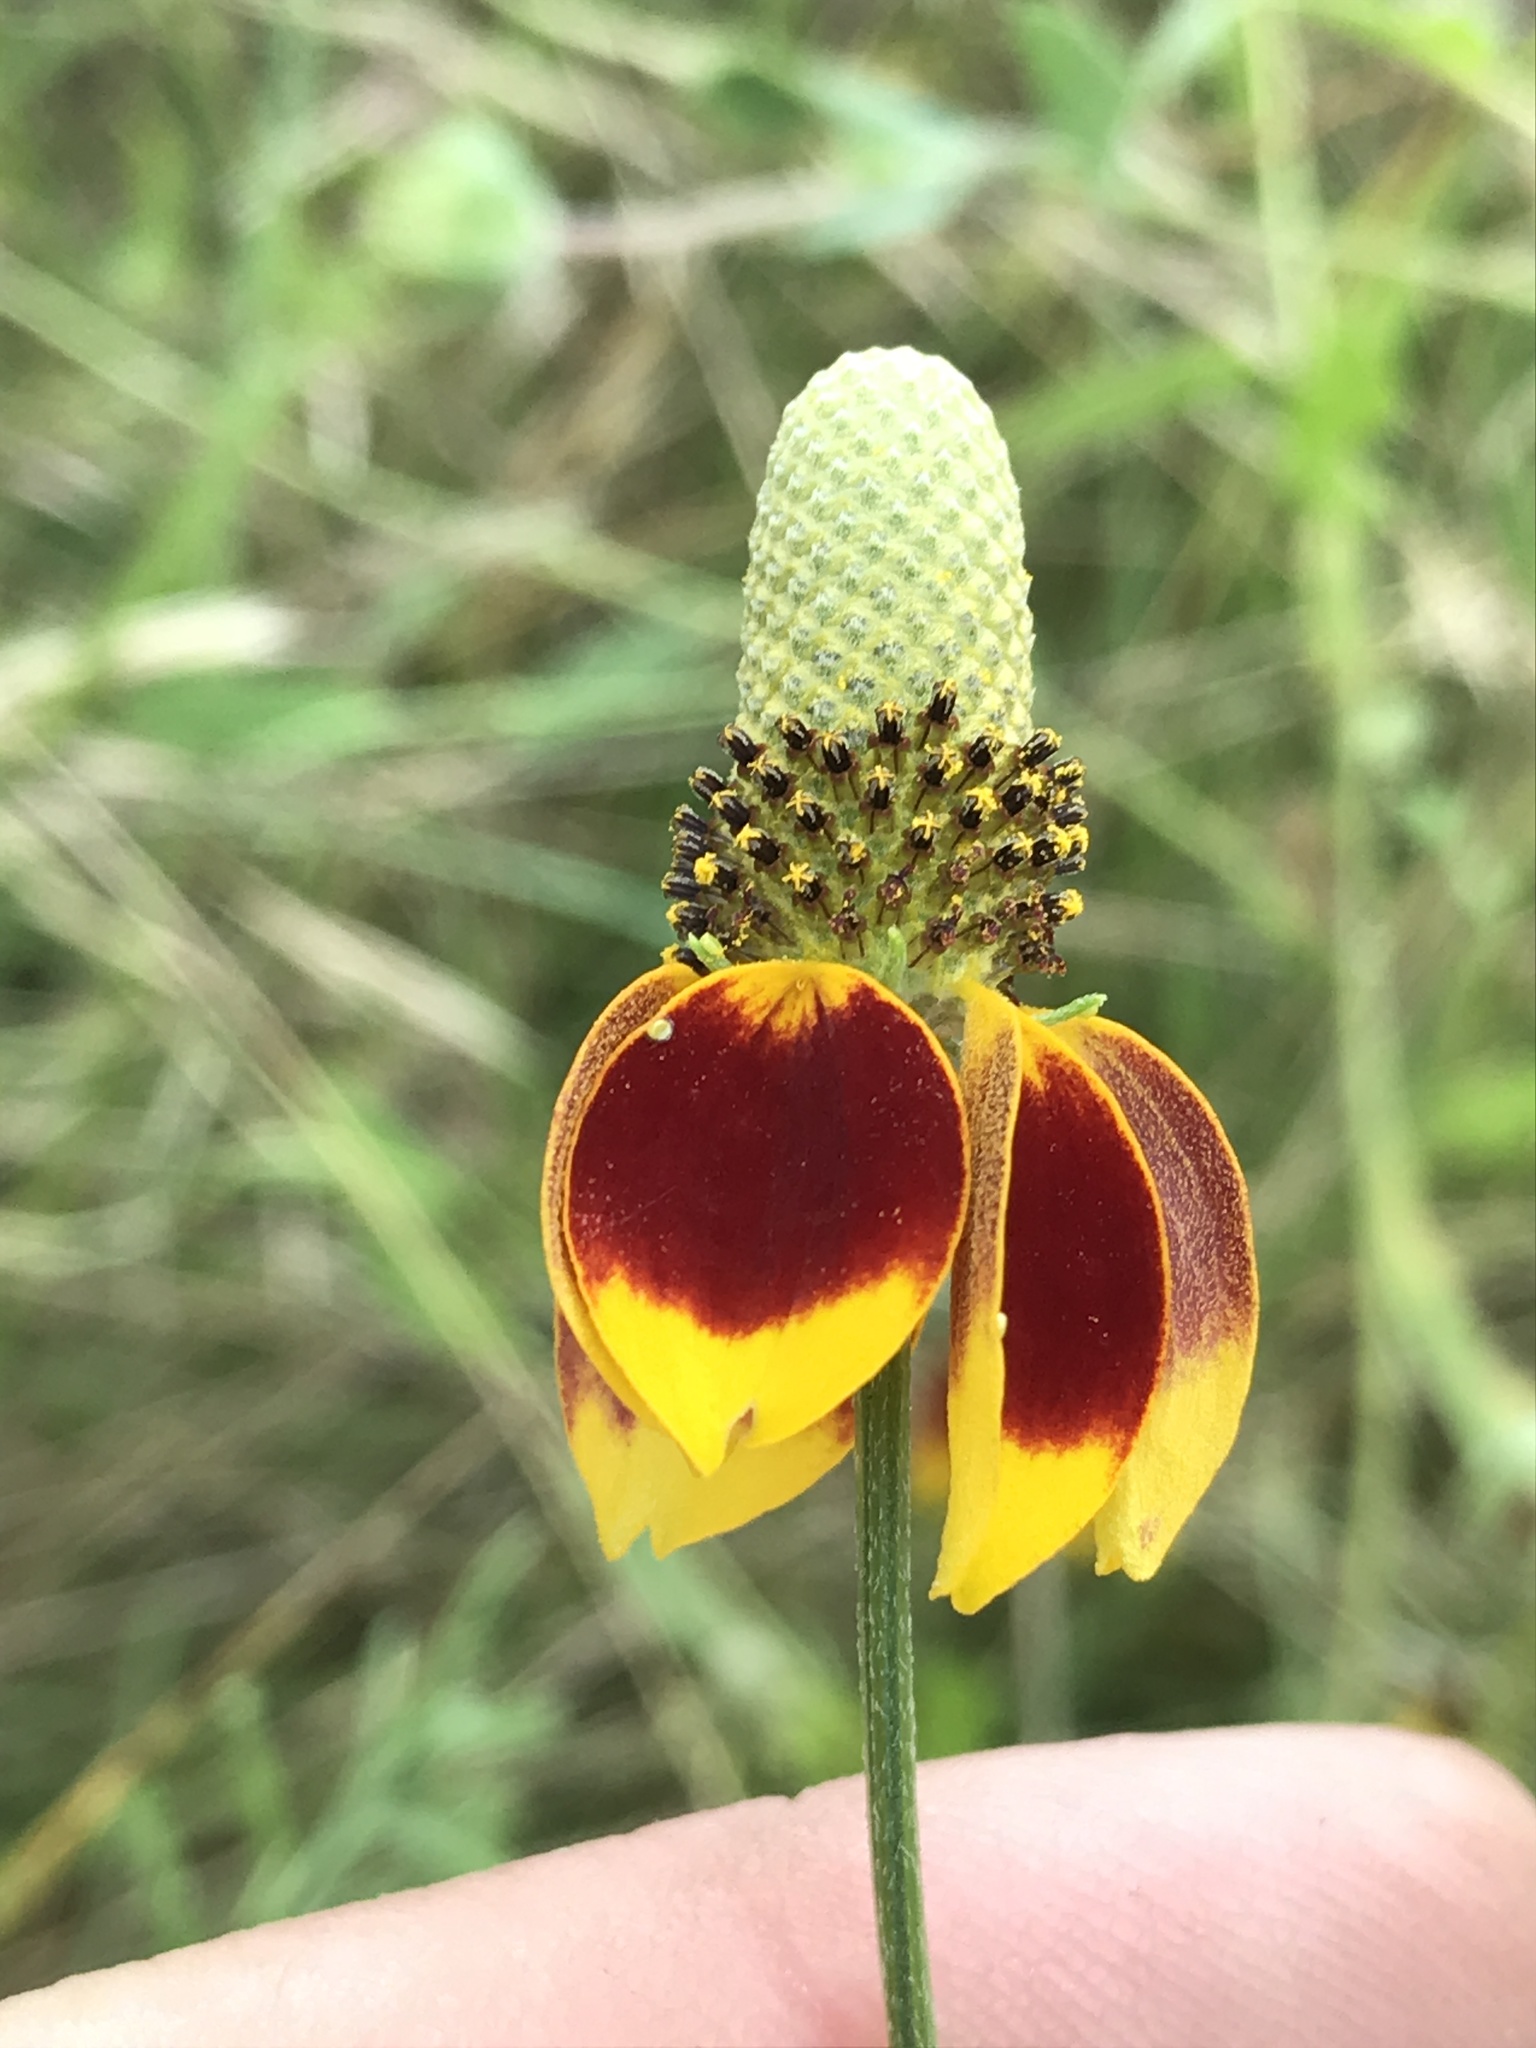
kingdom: Plantae
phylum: Tracheophyta
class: Magnoliopsida
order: Asterales
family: Asteraceae
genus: Ratibida
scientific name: Ratibida columnifera
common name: Prairie coneflower
